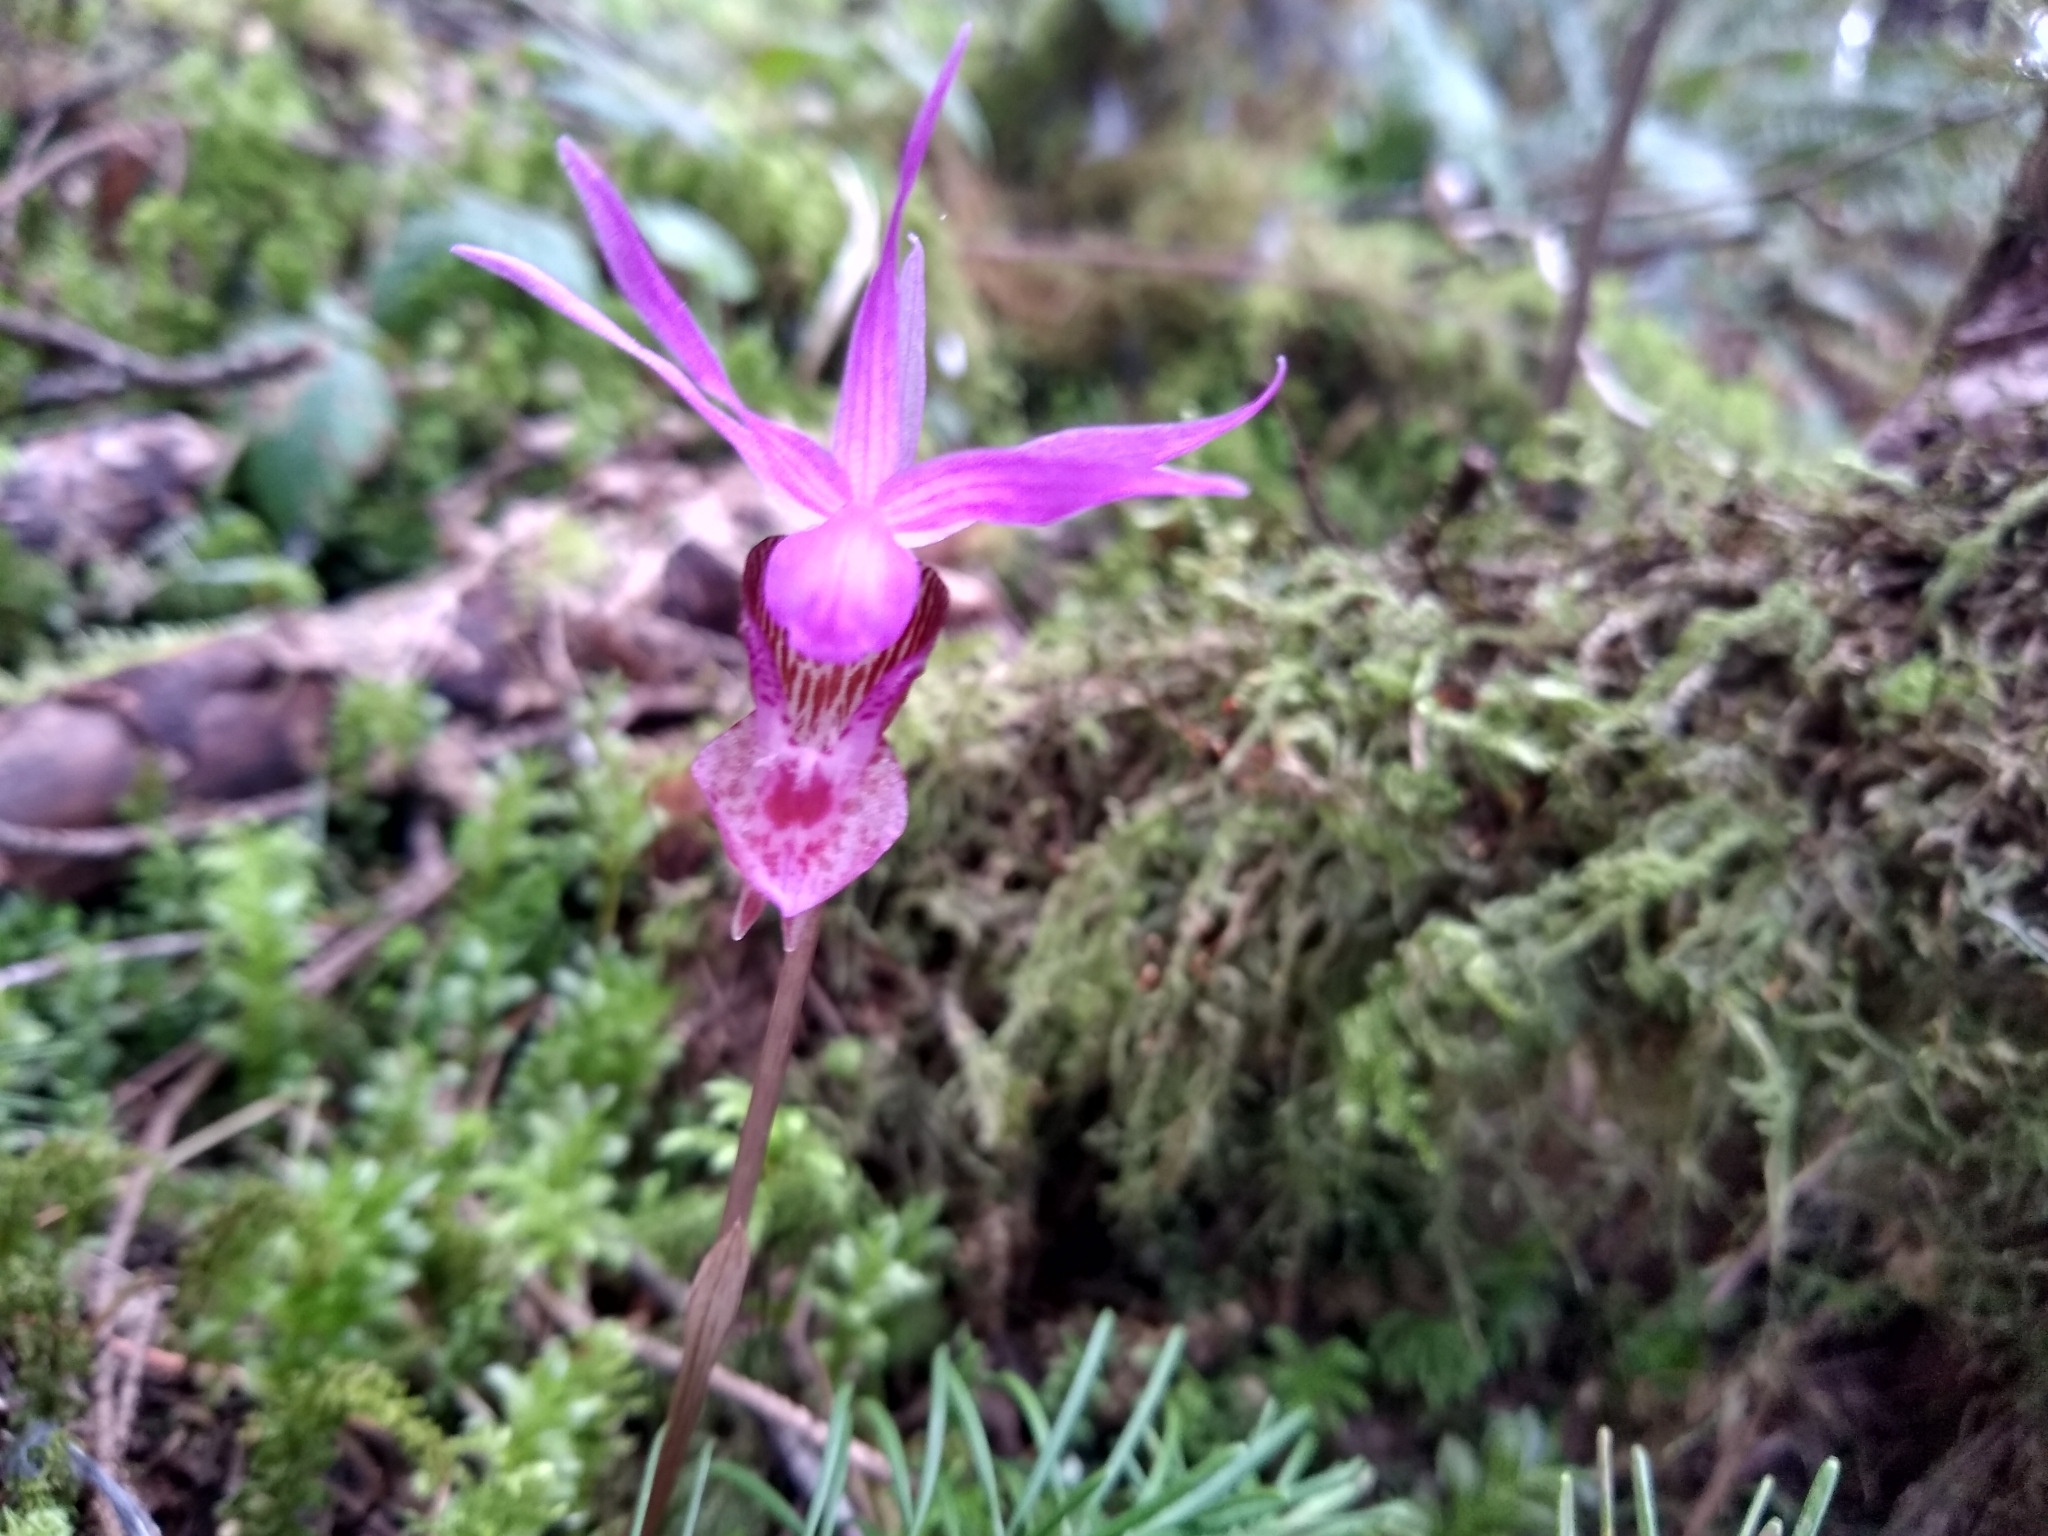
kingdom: Plantae
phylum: Tracheophyta
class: Liliopsida
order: Asparagales
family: Orchidaceae
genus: Calypso
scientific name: Calypso bulbosa
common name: Calypso
